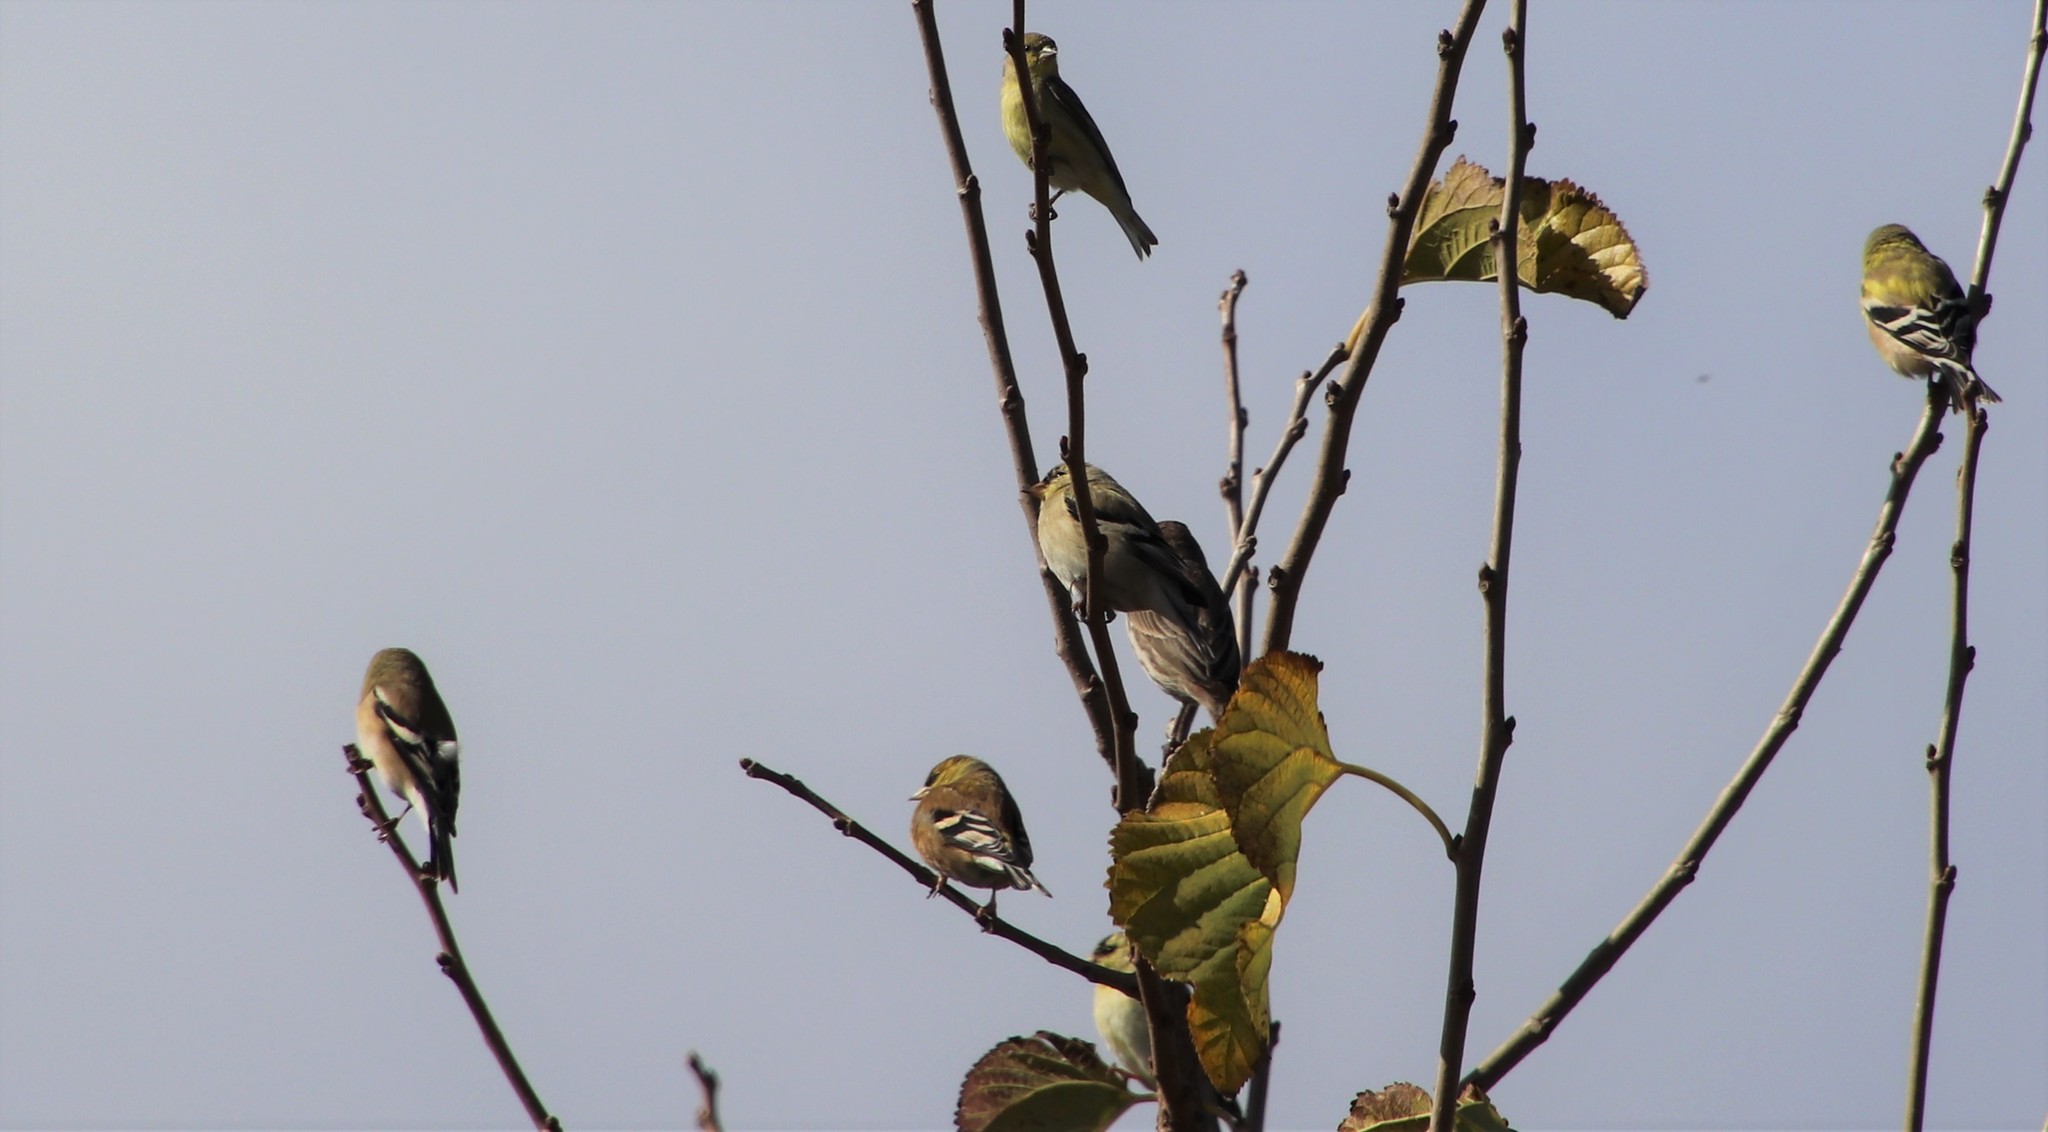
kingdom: Animalia
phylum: Chordata
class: Aves
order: Passeriformes
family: Fringillidae
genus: Spinus
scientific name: Spinus tristis
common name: American goldfinch
